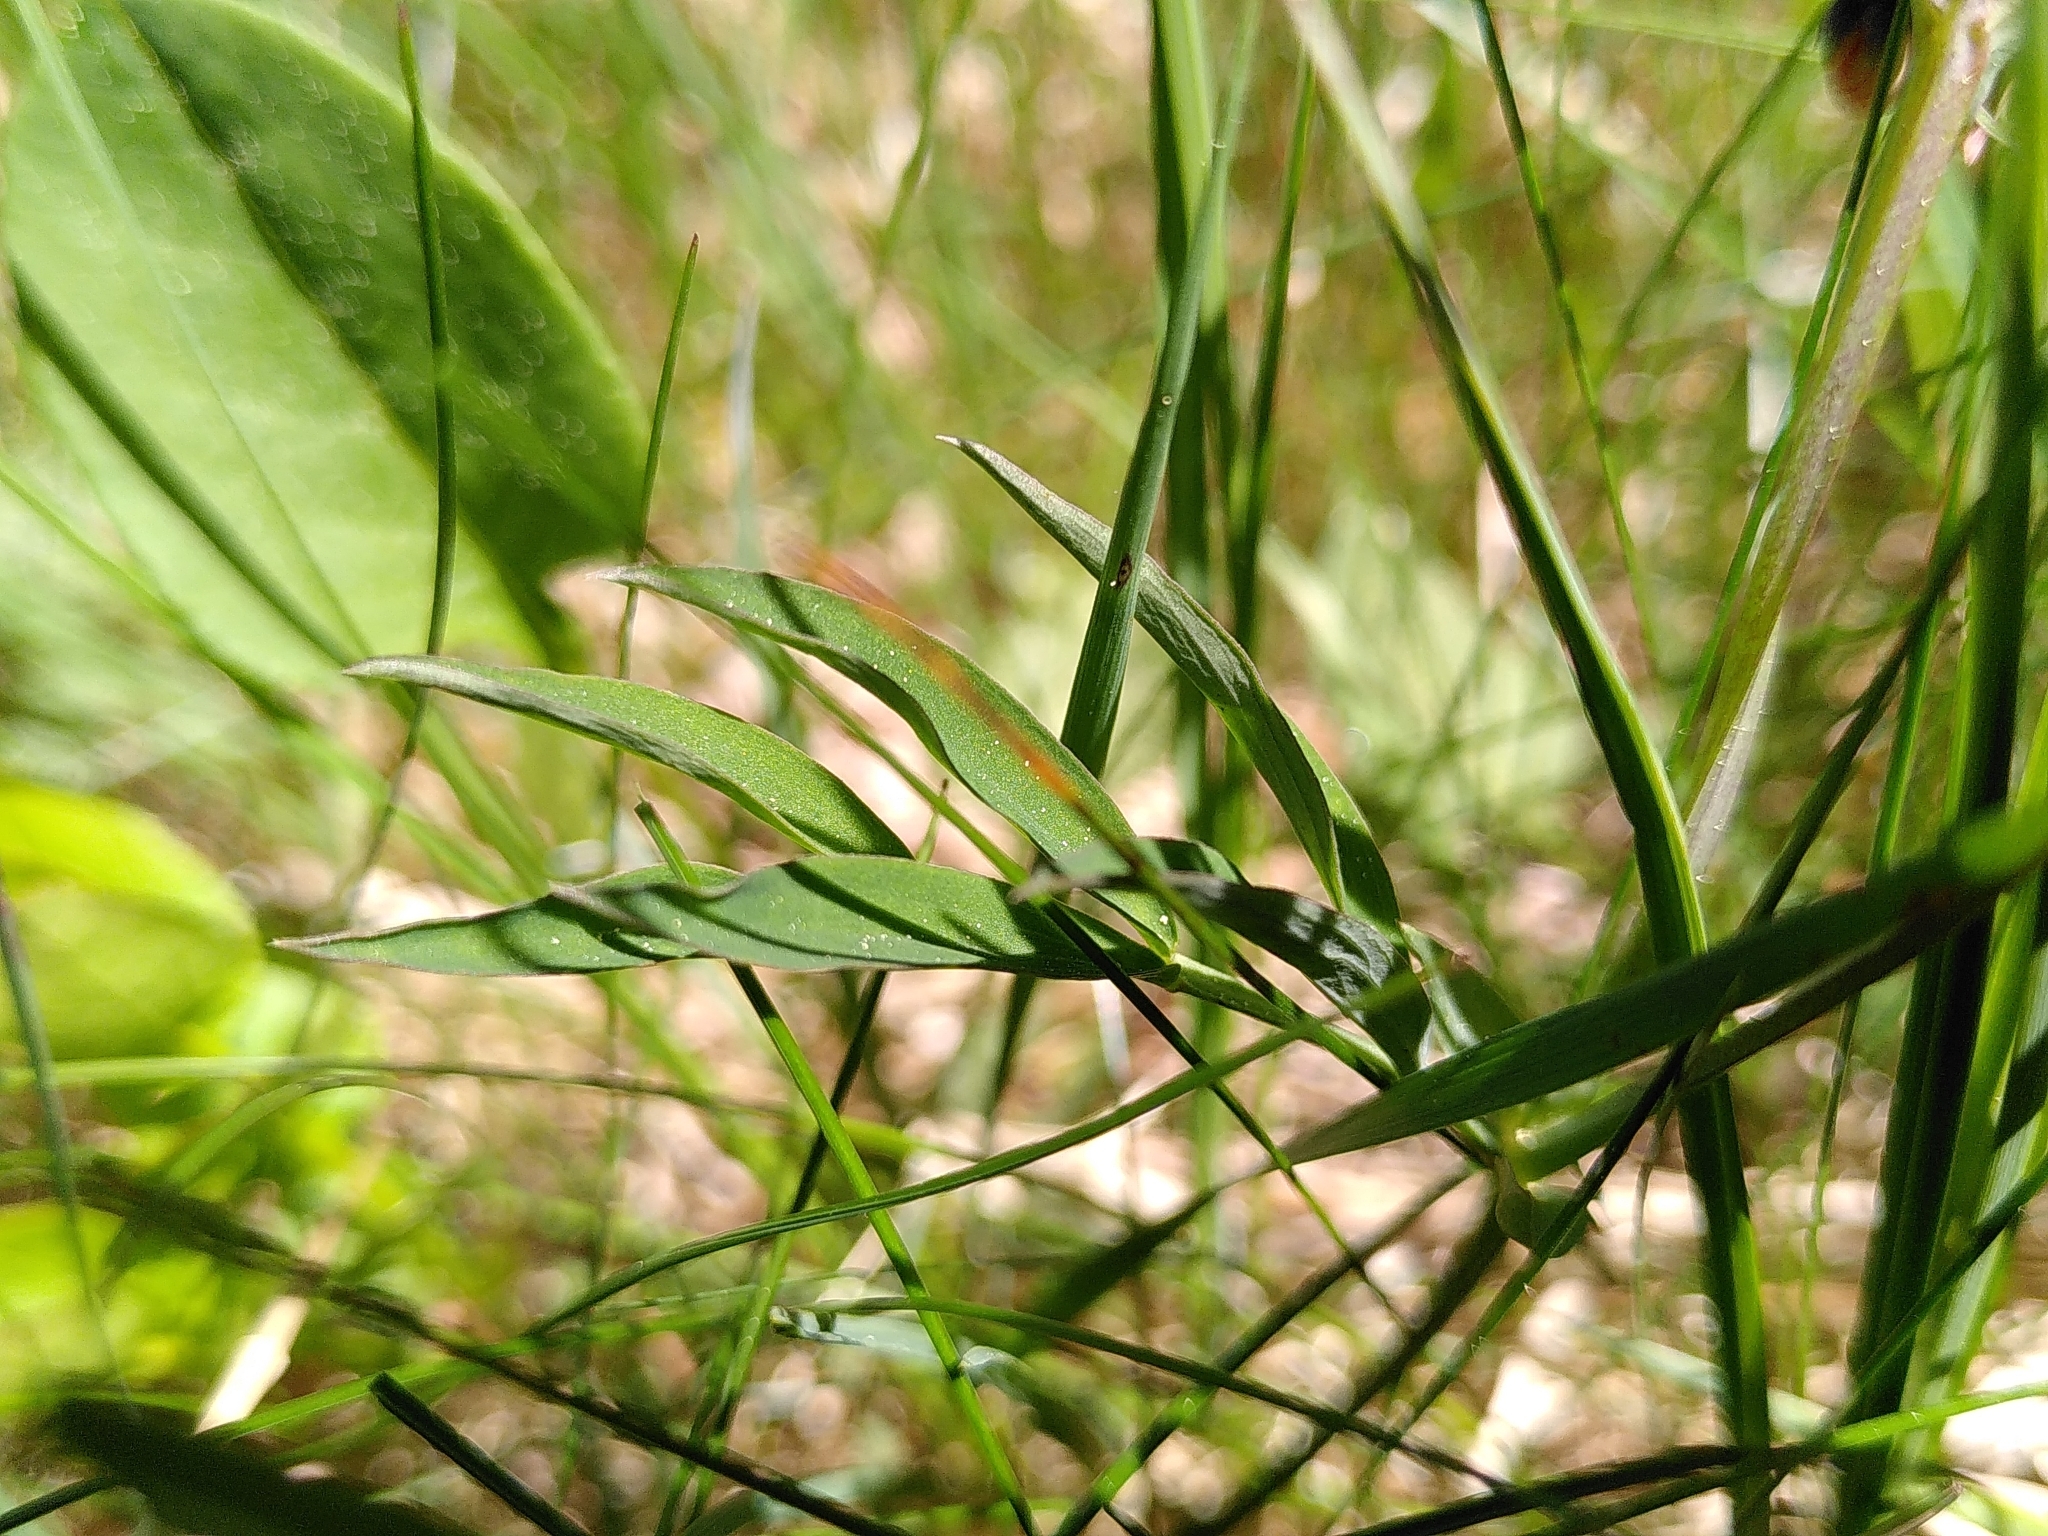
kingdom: Plantae
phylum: Tracheophyta
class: Magnoliopsida
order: Fabales
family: Fabaceae
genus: Lathyrus
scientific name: Lathyrus linifolius
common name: Bitter-vetch
